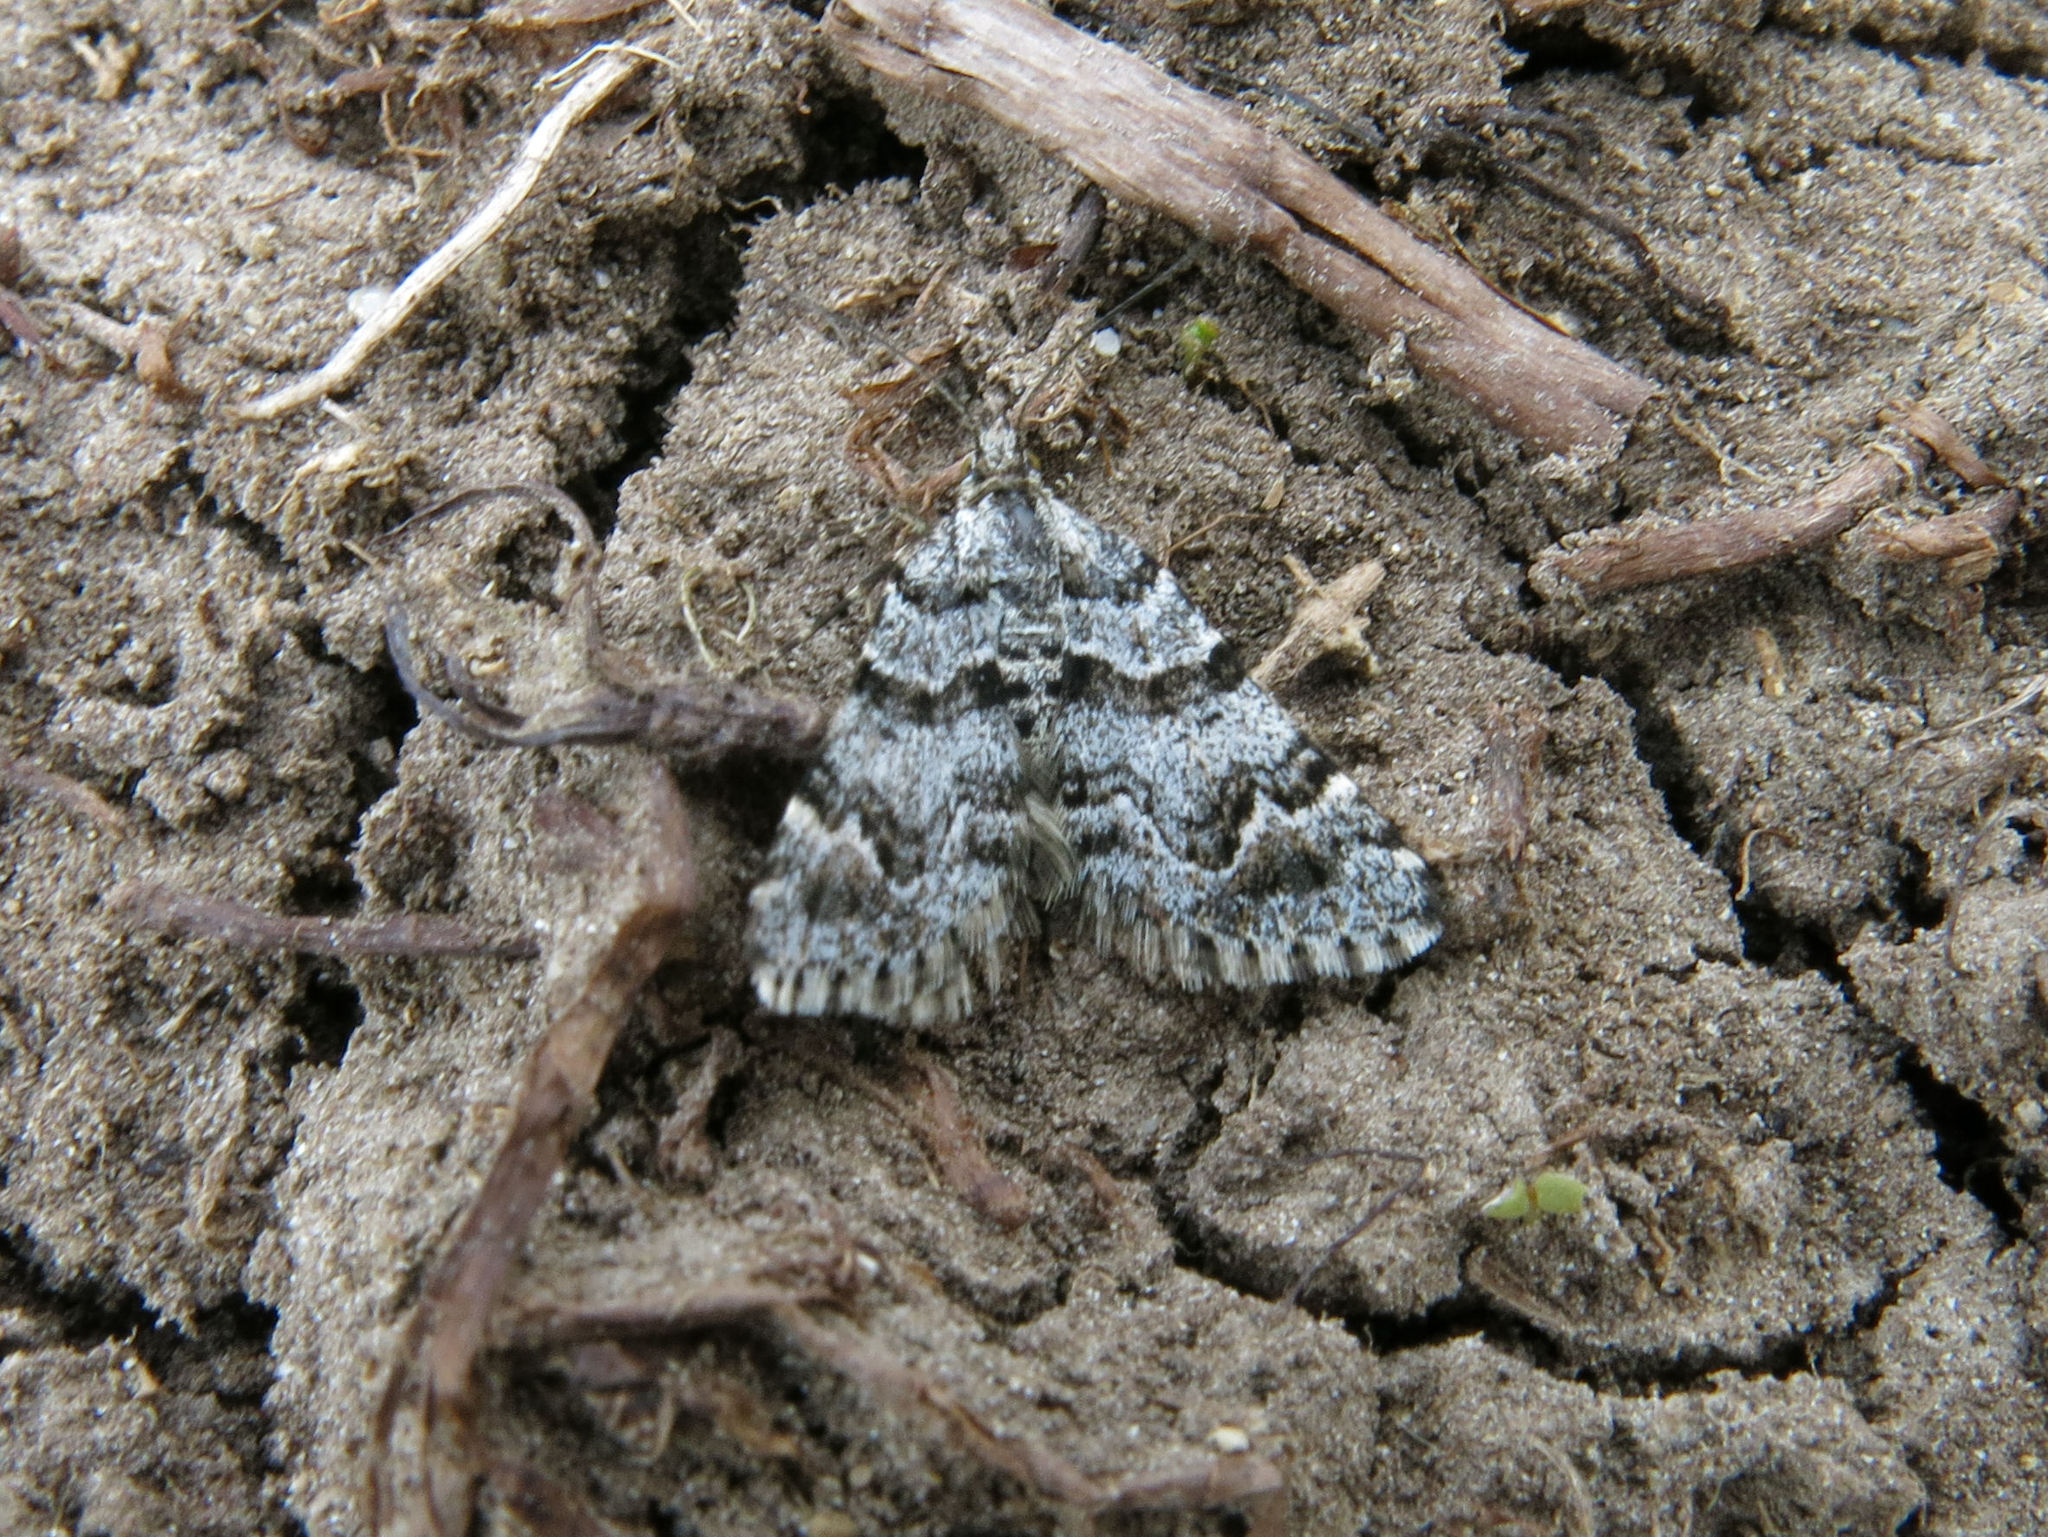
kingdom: Animalia
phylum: Arthropoda
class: Insecta
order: Lepidoptera
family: Geometridae
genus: Arctesthes
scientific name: Arctesthes catapyrrha
